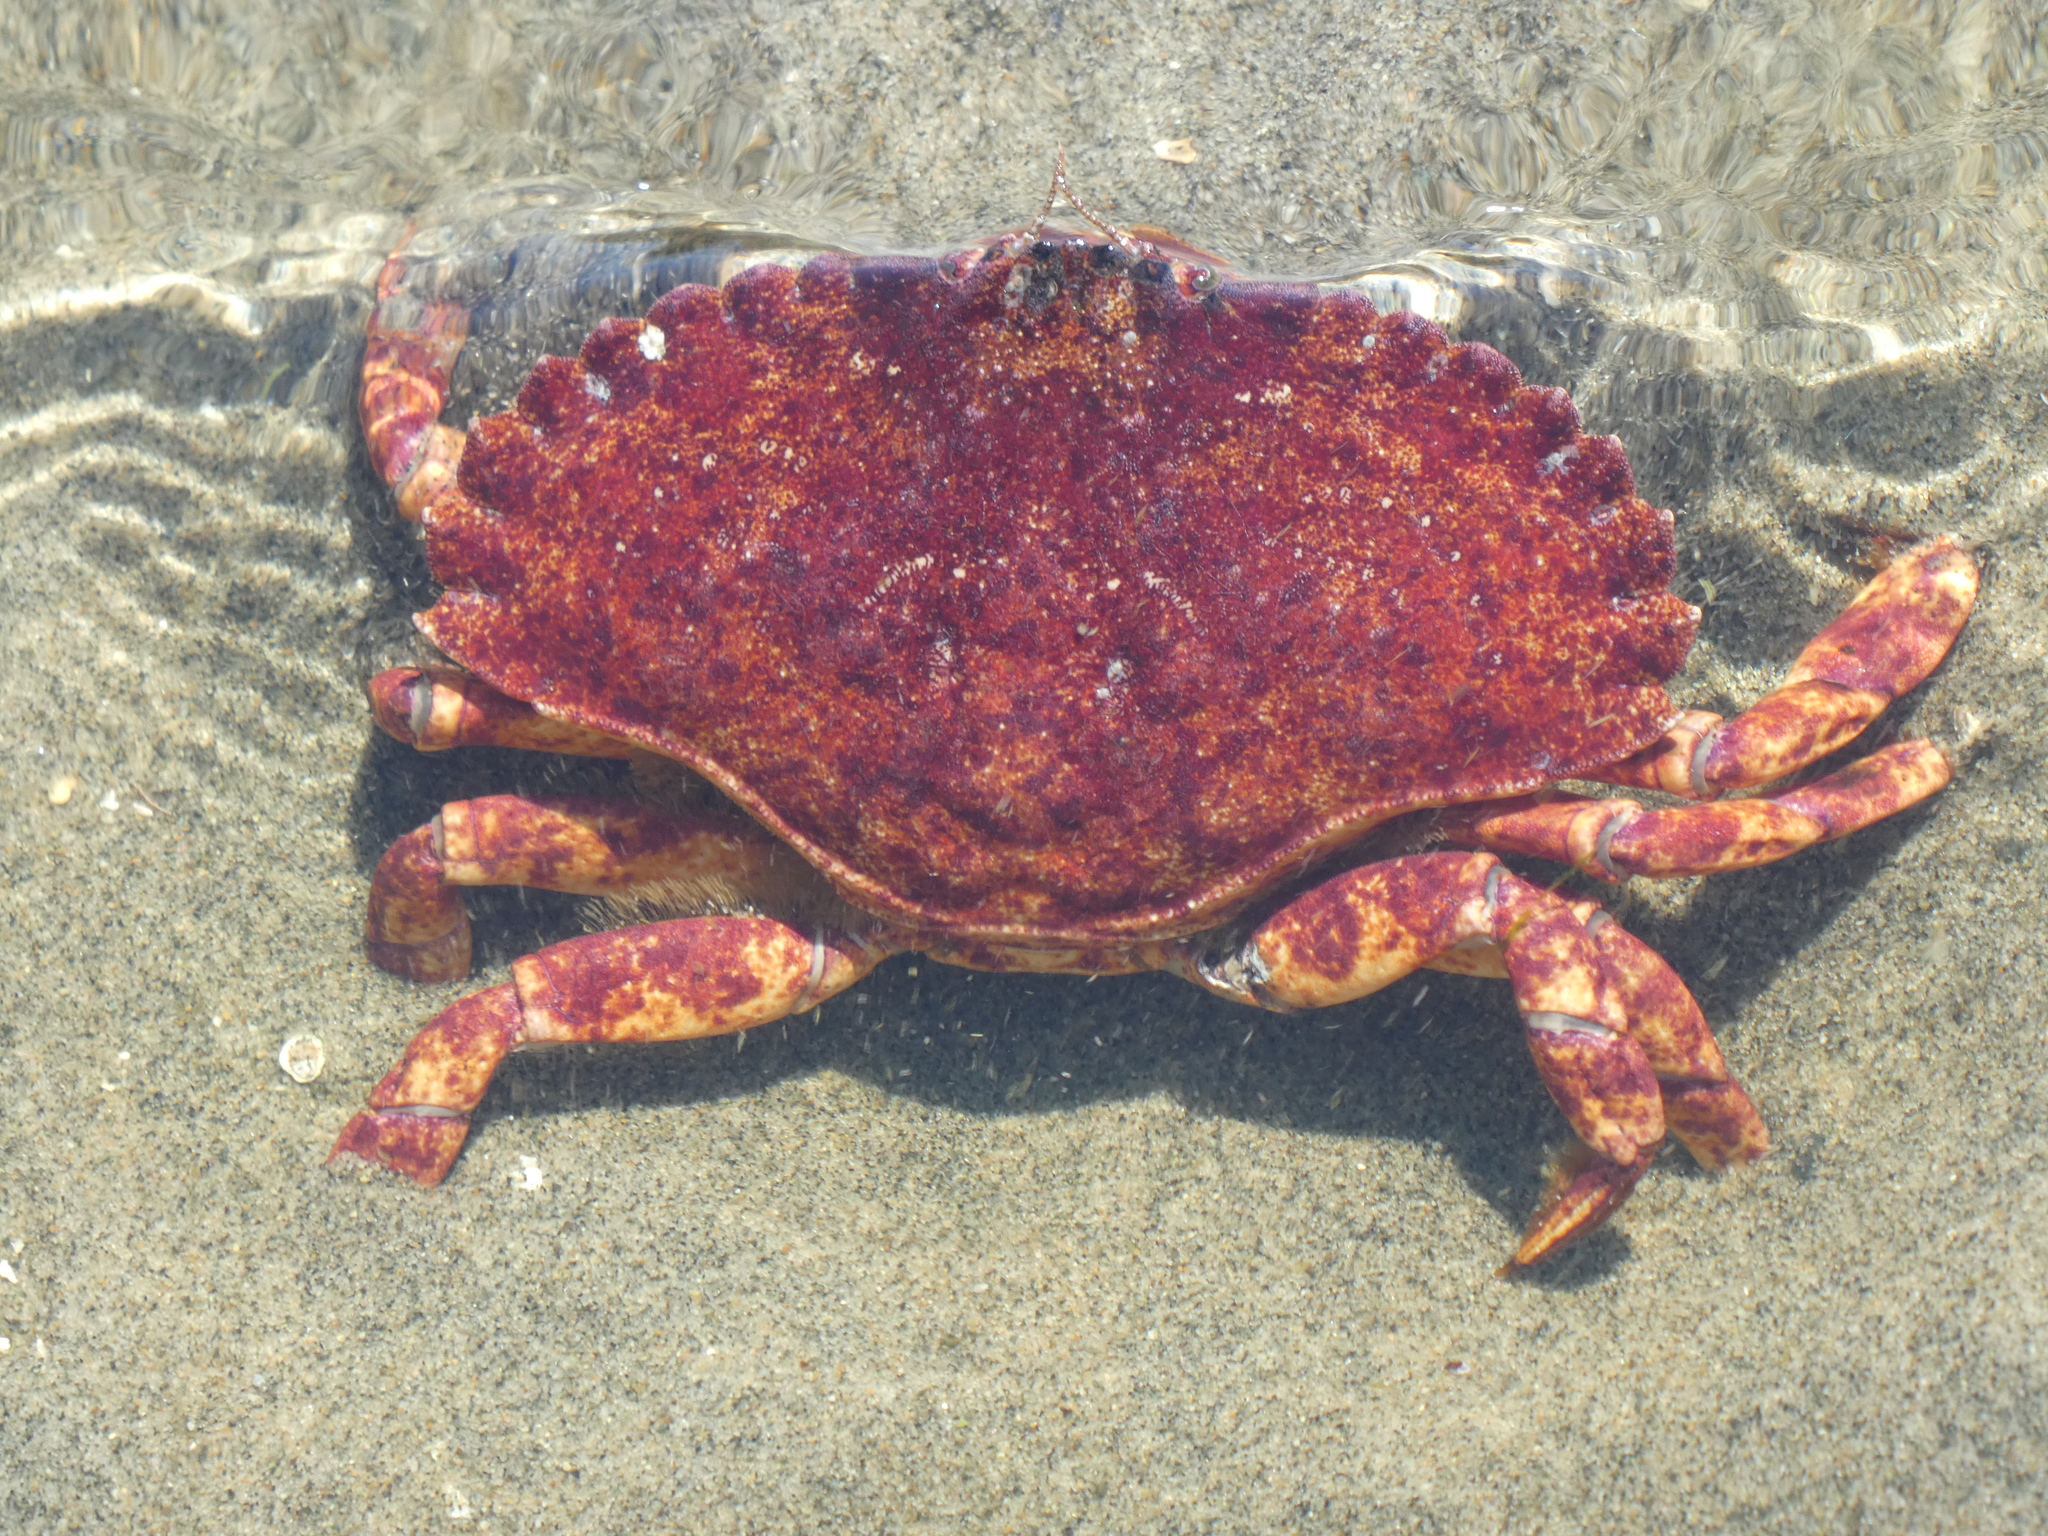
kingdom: Animalia
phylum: Arthropoda
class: Malacostraca
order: Decapoda
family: Cancridae
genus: Cancer
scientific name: Cancer productus
